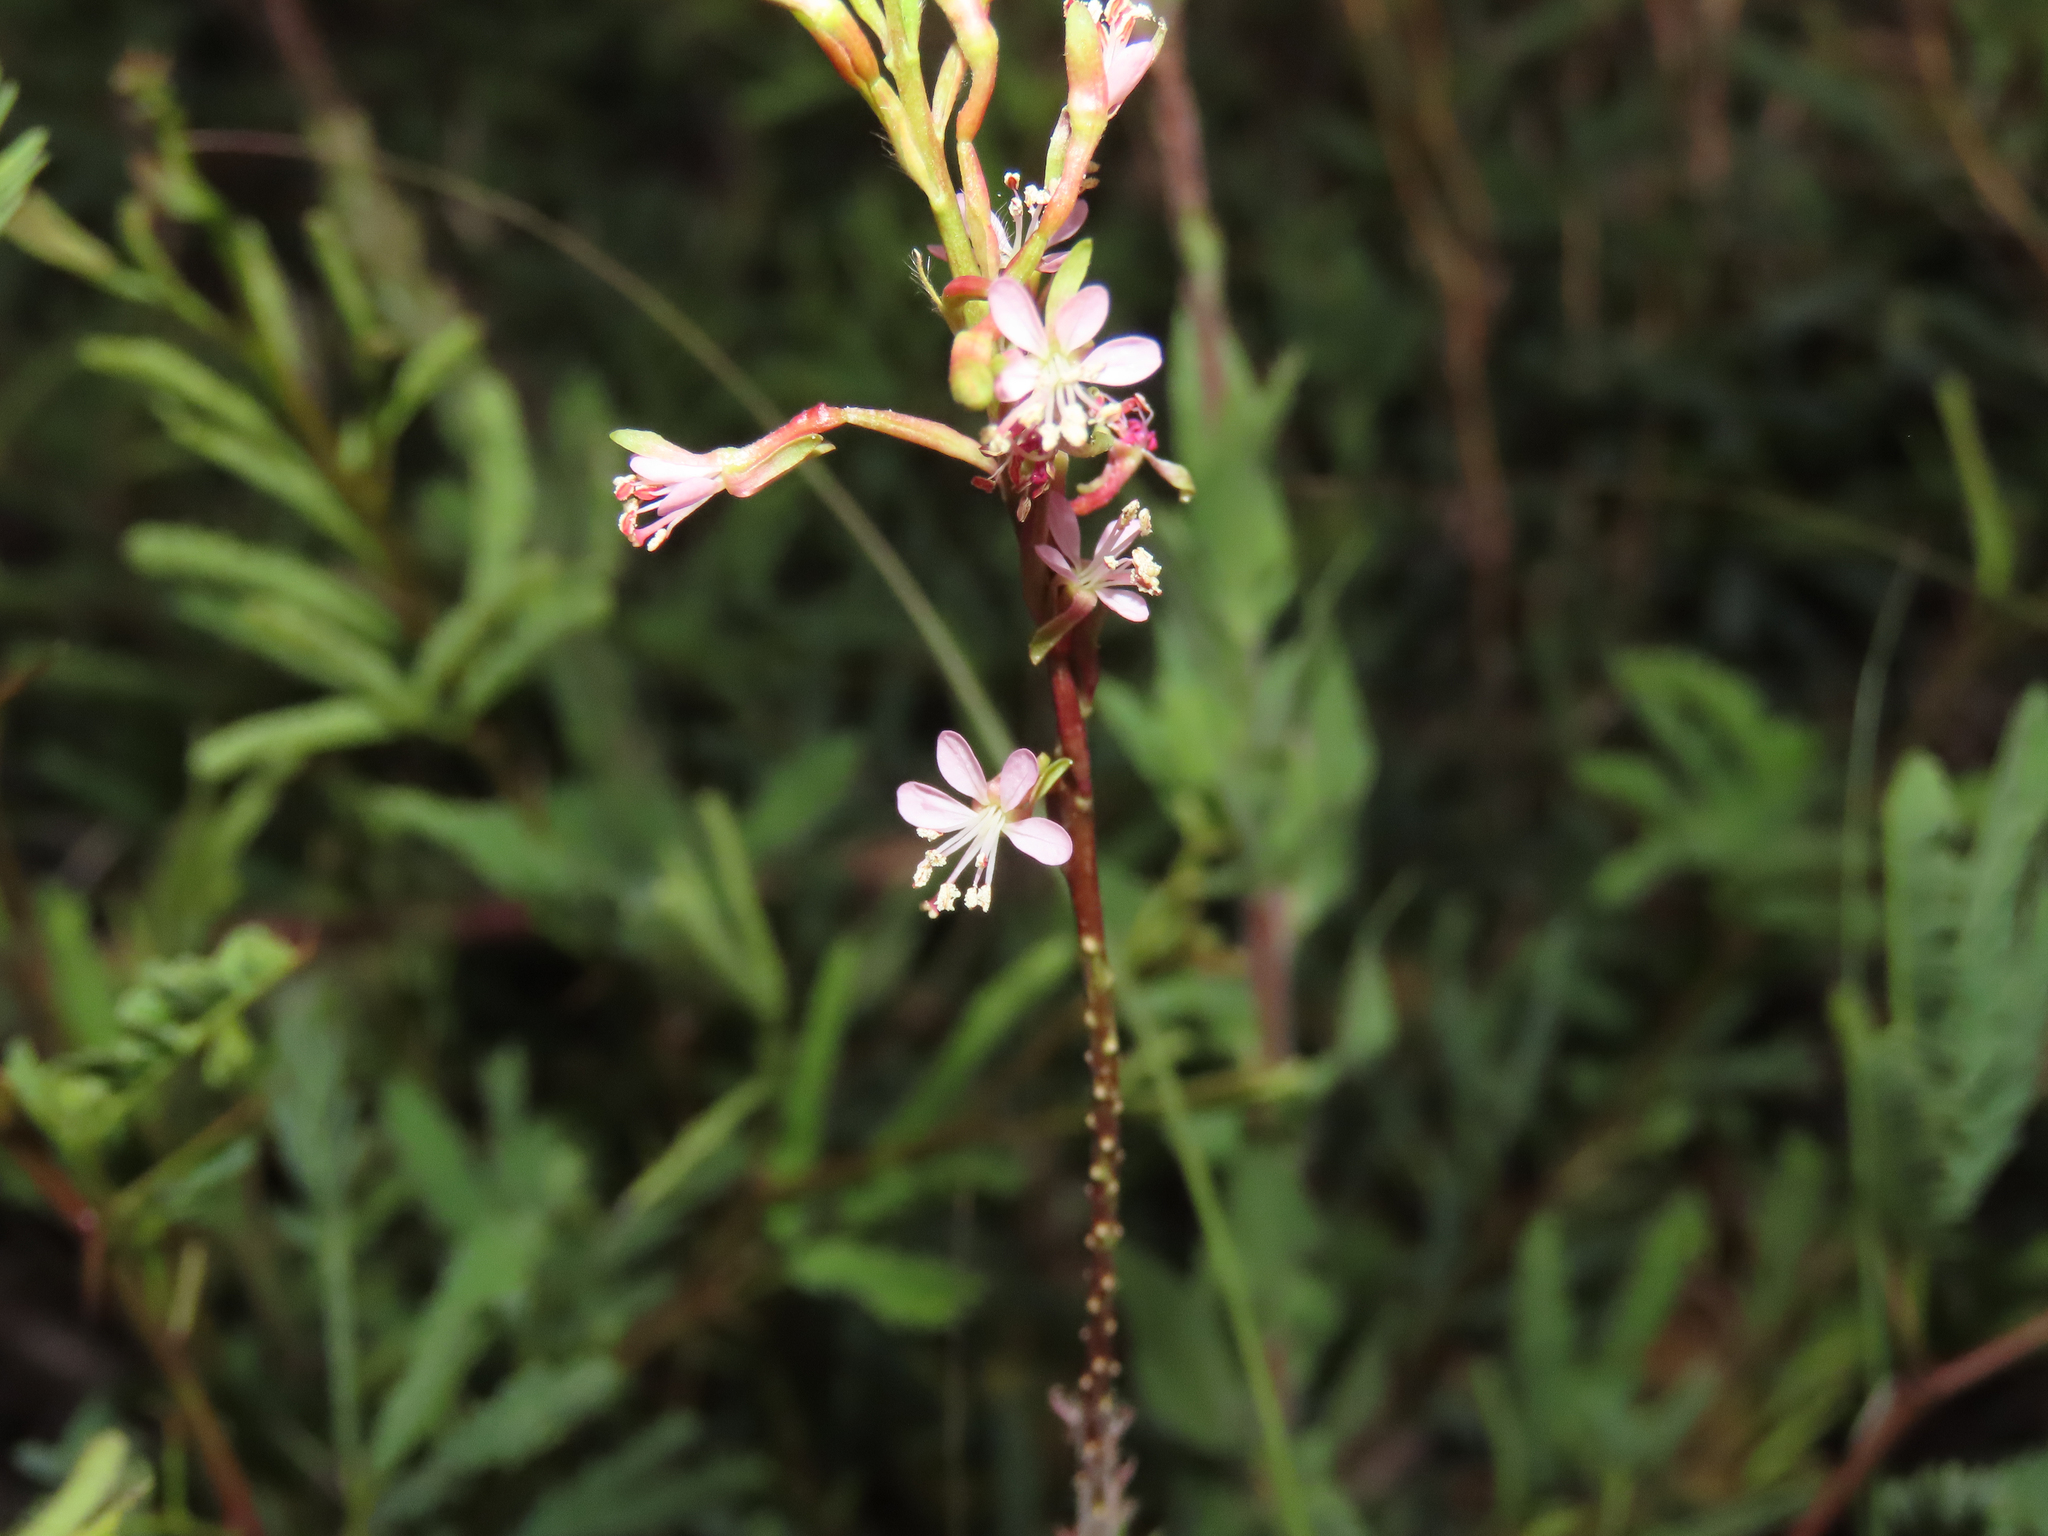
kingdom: Plantae
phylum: Tracheophyta
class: Magnoliopsida
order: Myrtales
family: Onagraceae
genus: Oenothera
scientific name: Oenothera podocarpa
